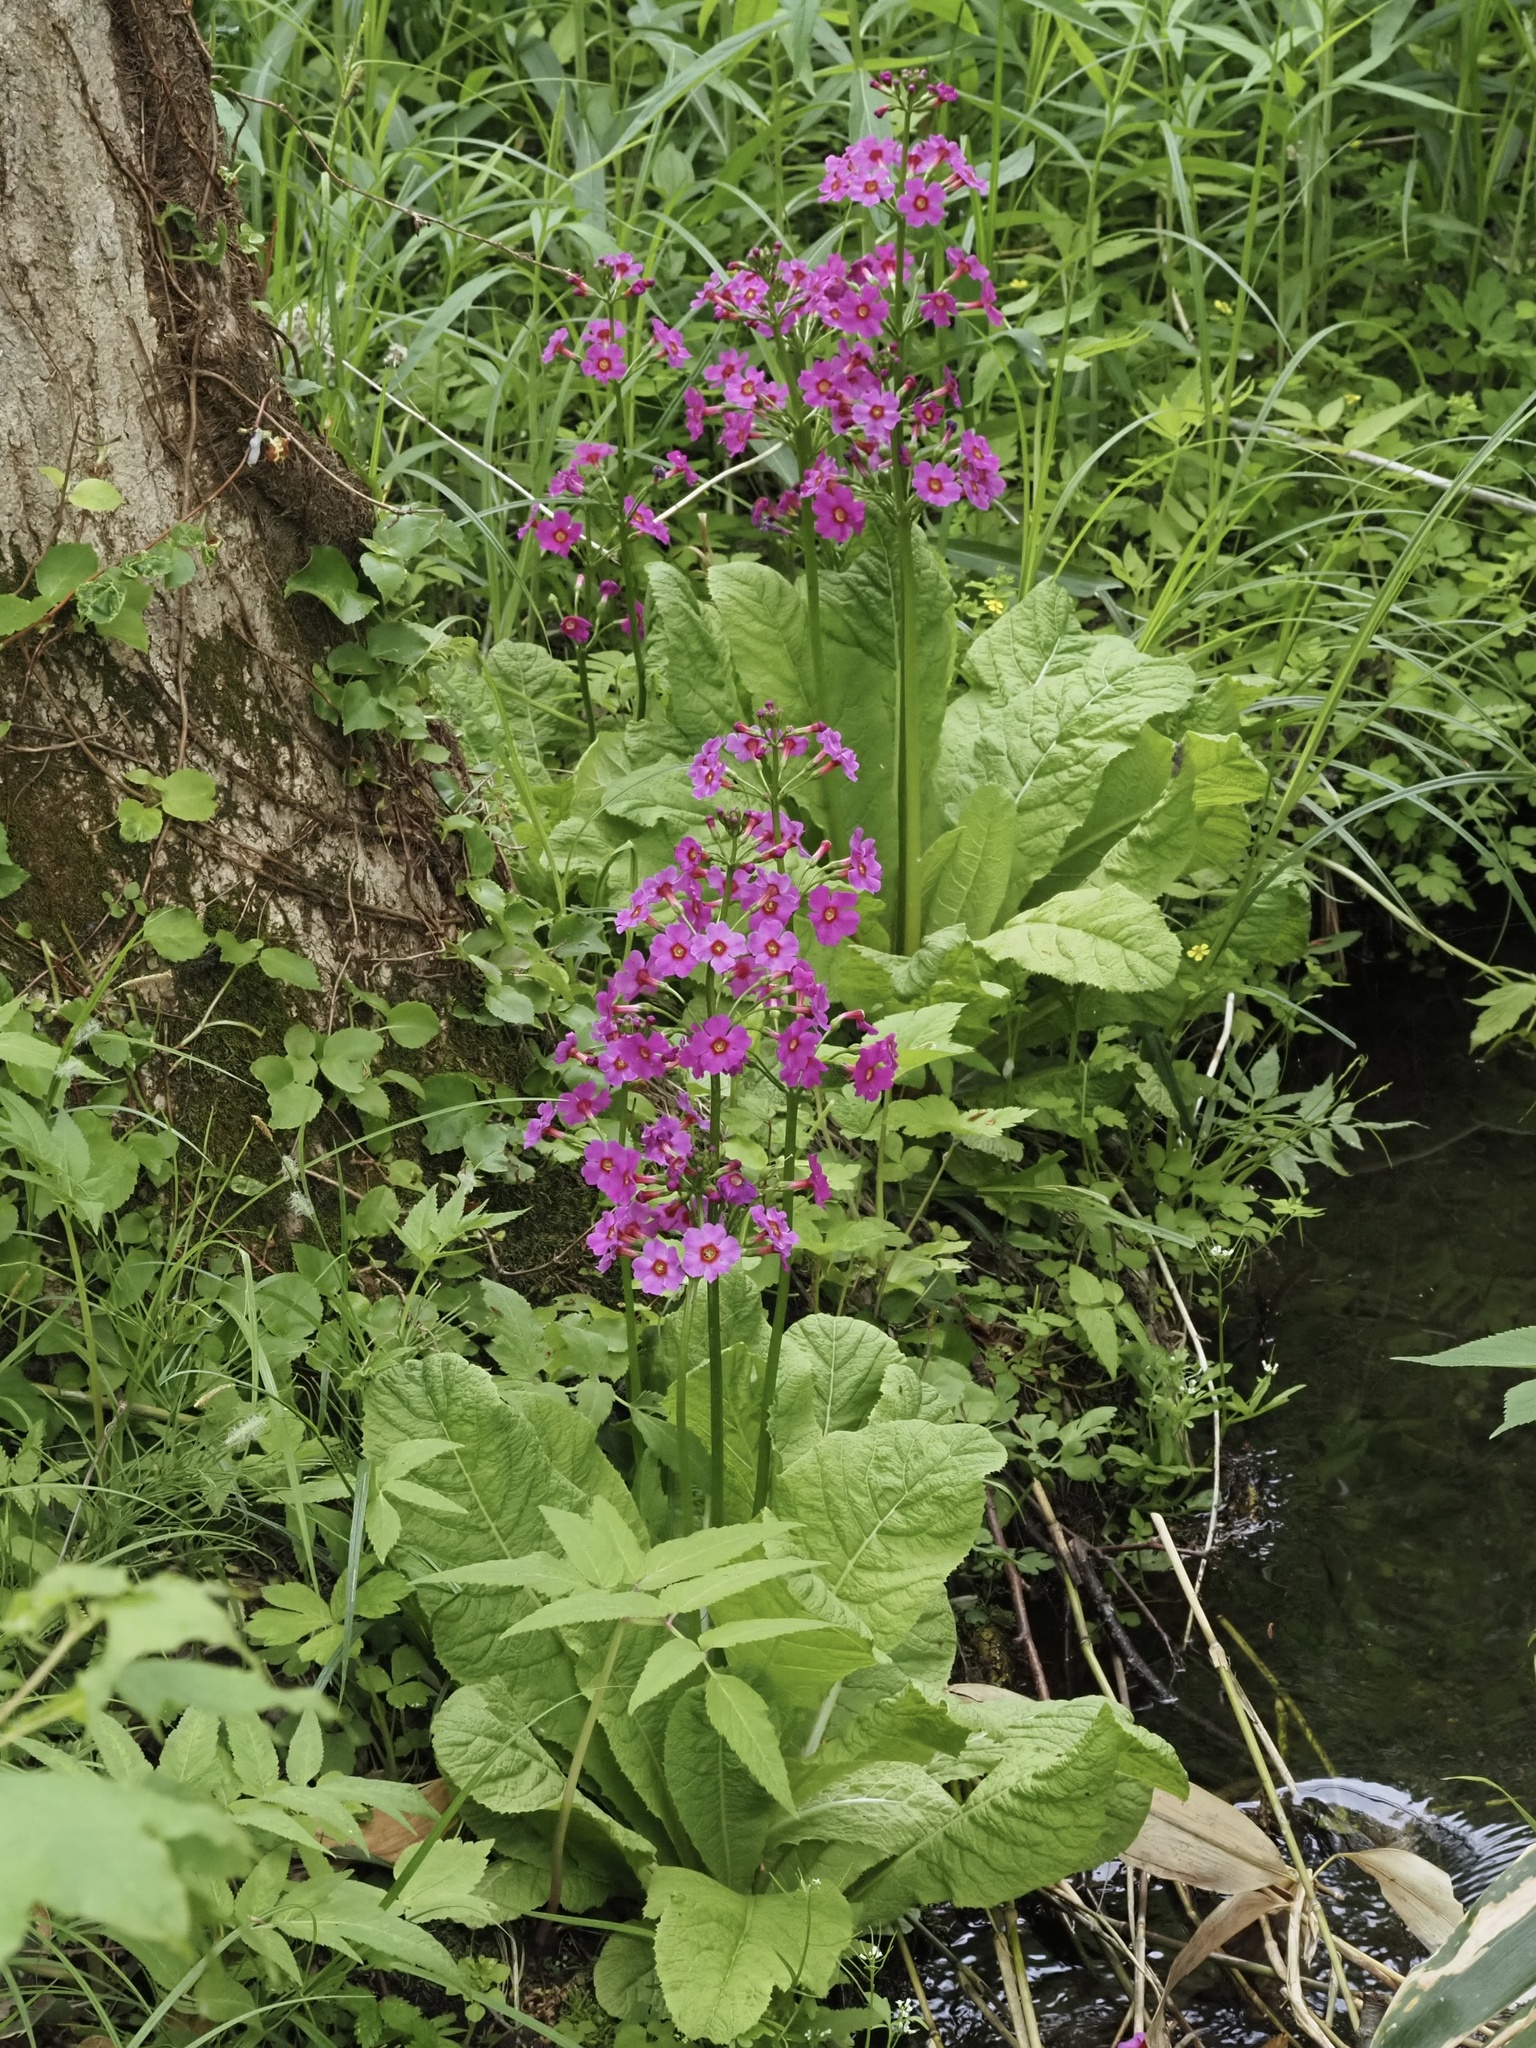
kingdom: Plantae
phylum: Tracheophyta
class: Magnoliopsida
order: Ericales
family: Primulaceae
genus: Primula
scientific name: Primula japonica
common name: Japanese cowslip
